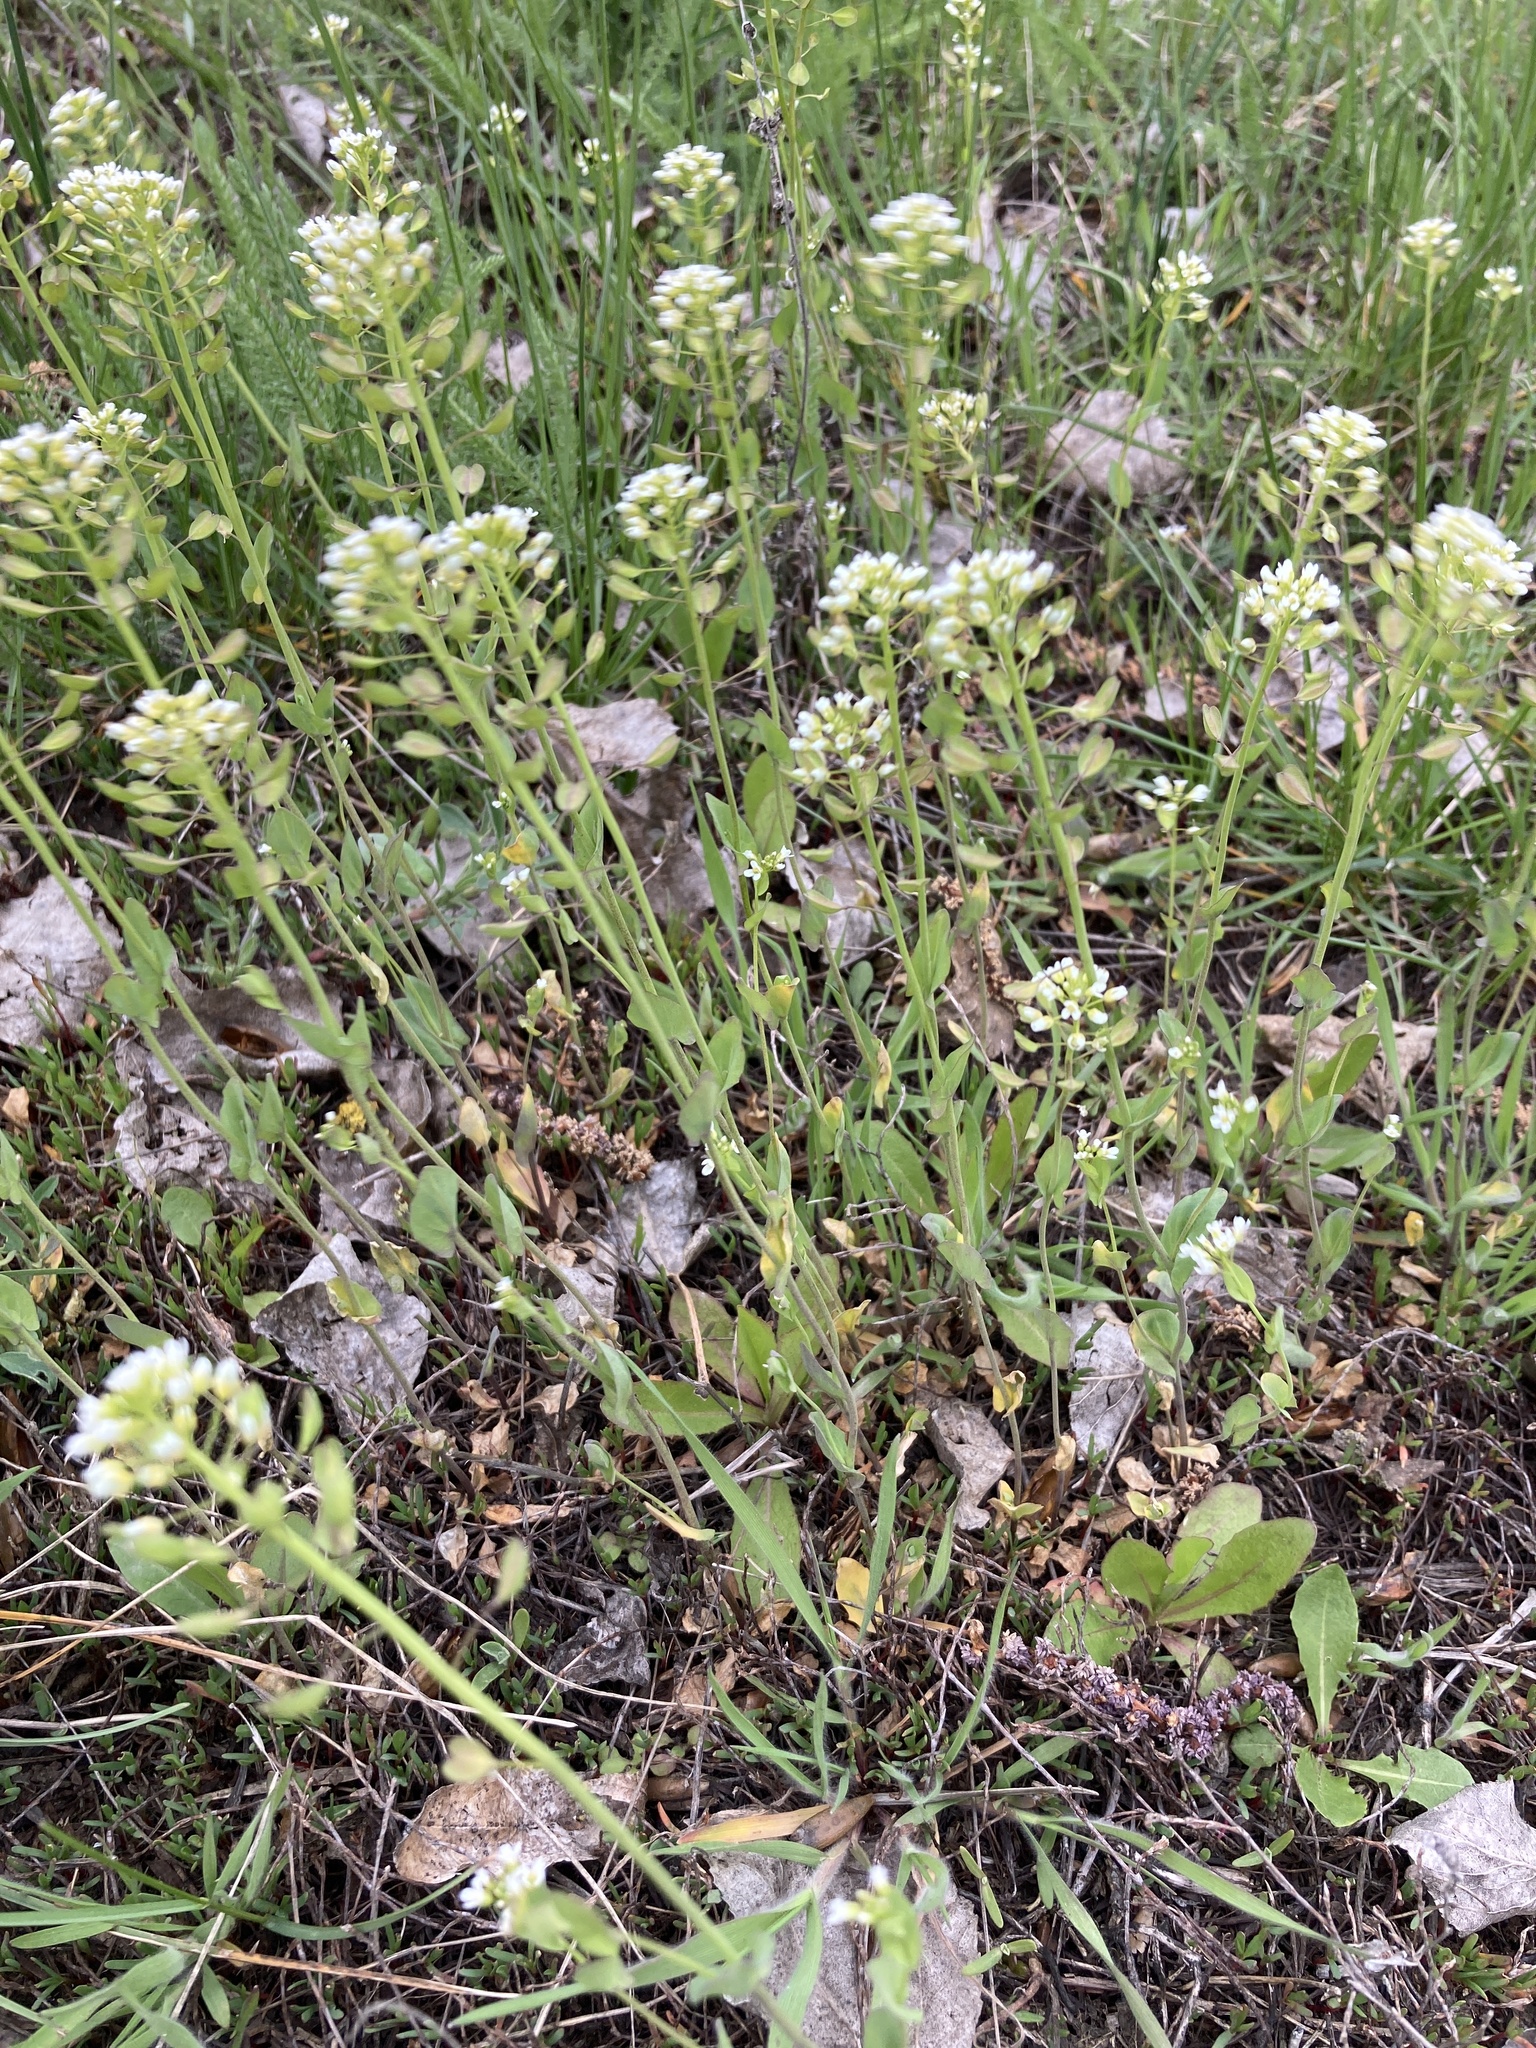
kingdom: Plantae
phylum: Tracheophyta
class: Magnoliopsida
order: Brassicales
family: Brassicaceae
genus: Noccaea
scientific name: Noccaea perfoliata
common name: Perfoliate pennycress
